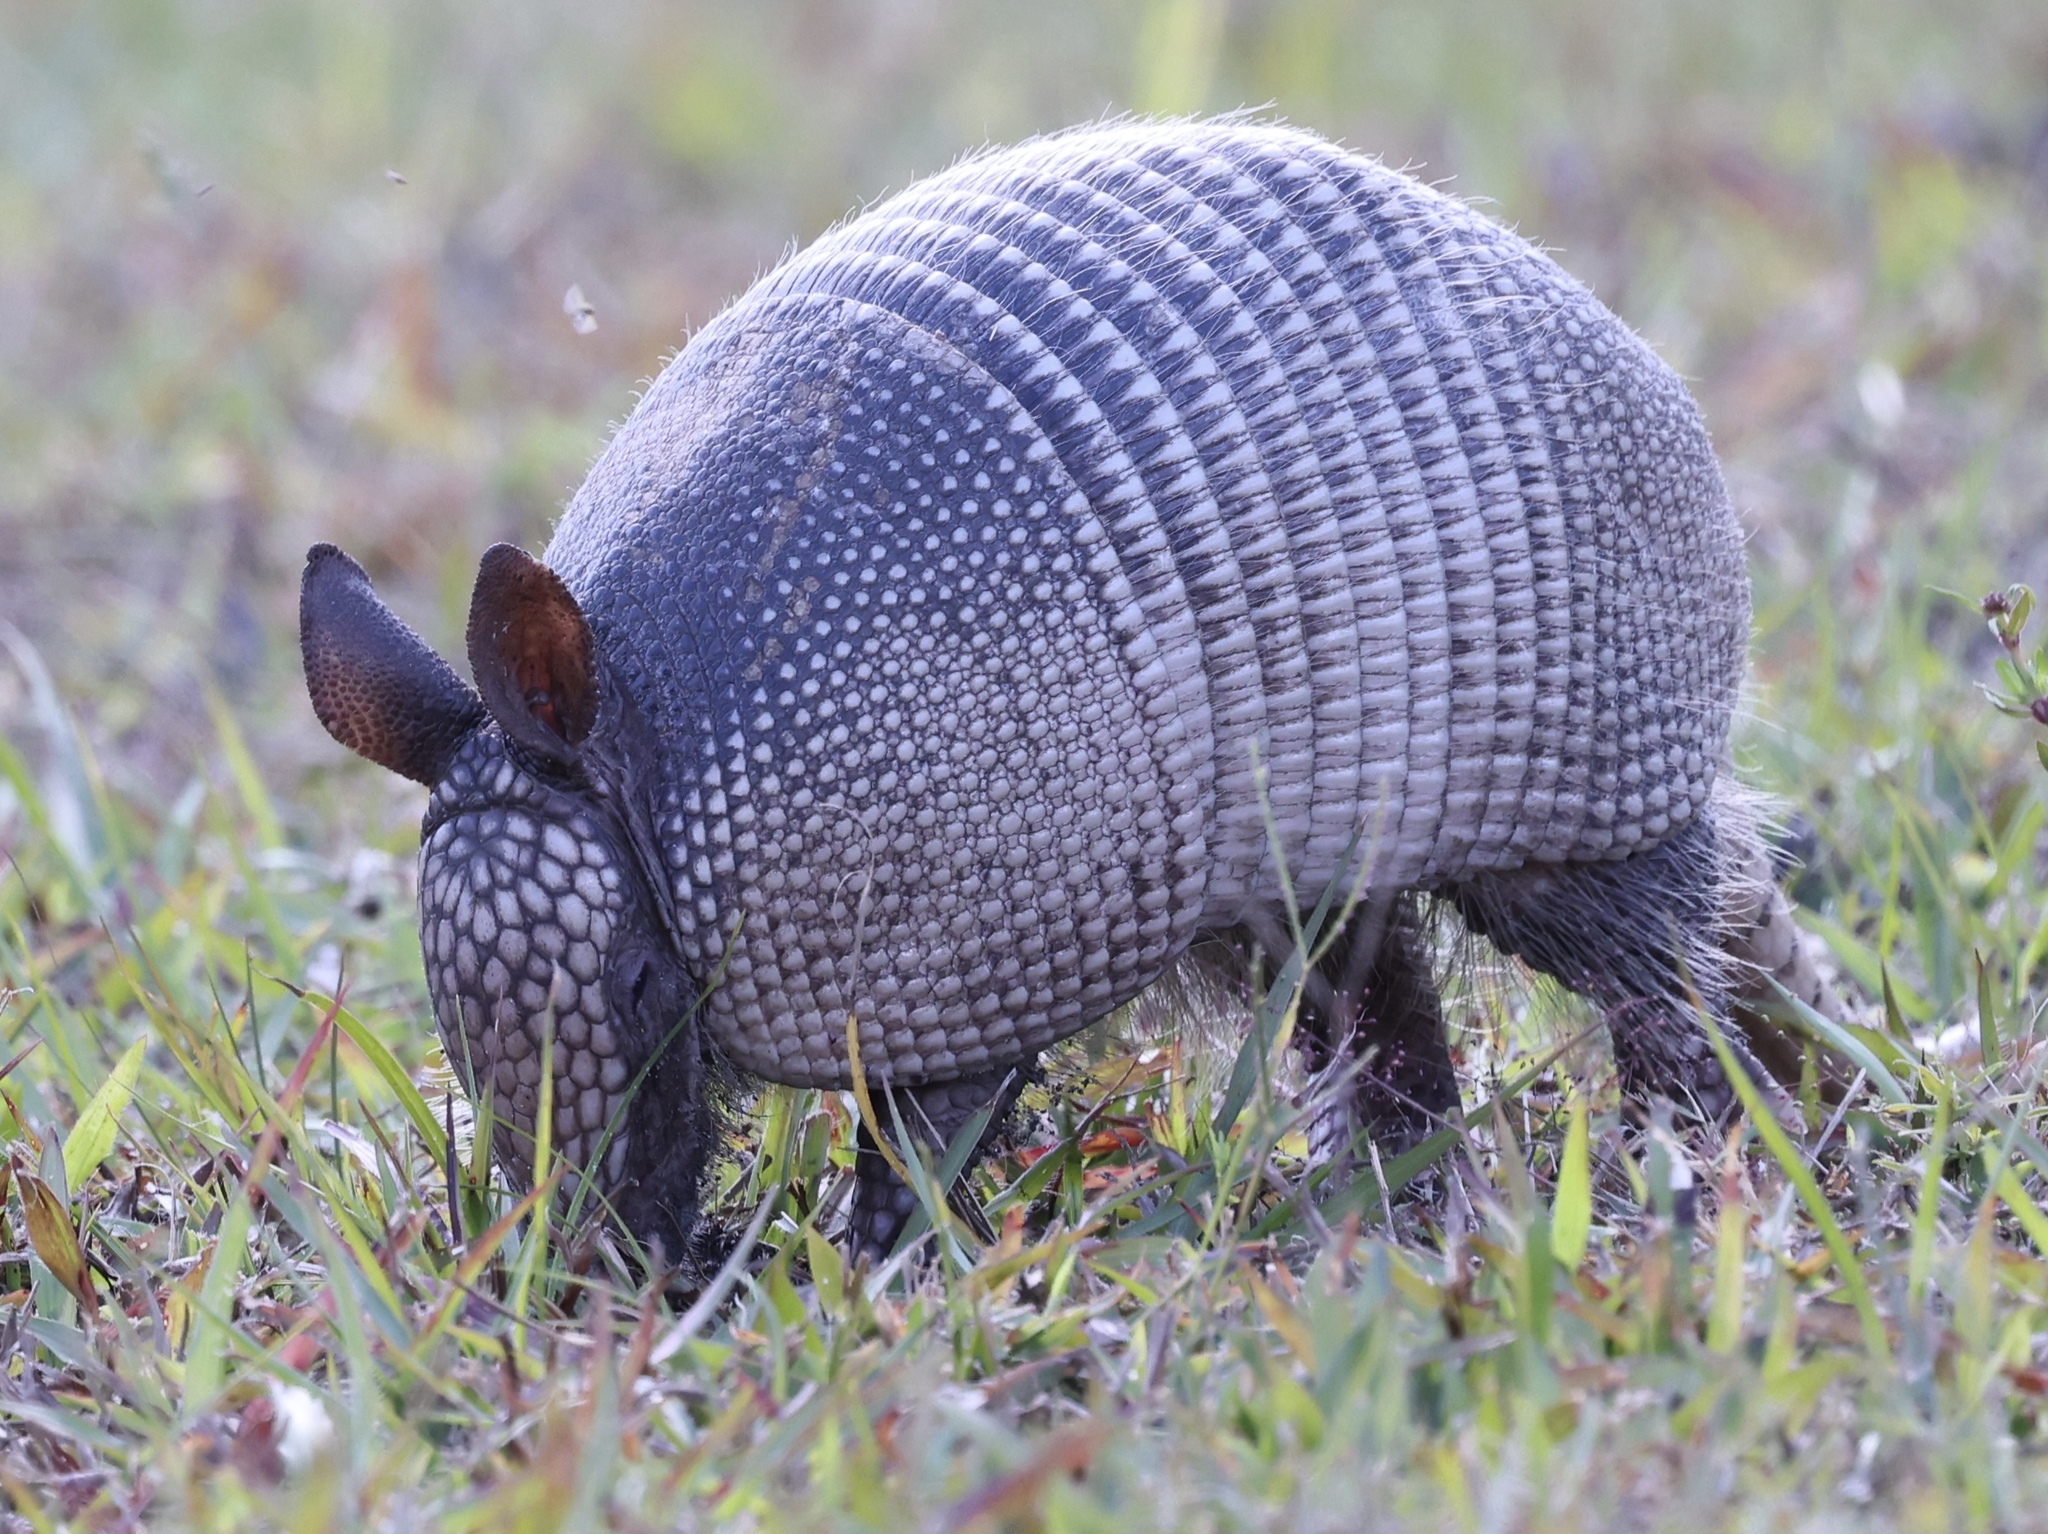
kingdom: Animalia
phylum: Chordata
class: Mammalia
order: Cingulata
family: Dasypodidae
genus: Dasypus
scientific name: Dasypus novemcinctus
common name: Nine-banded armadillo
